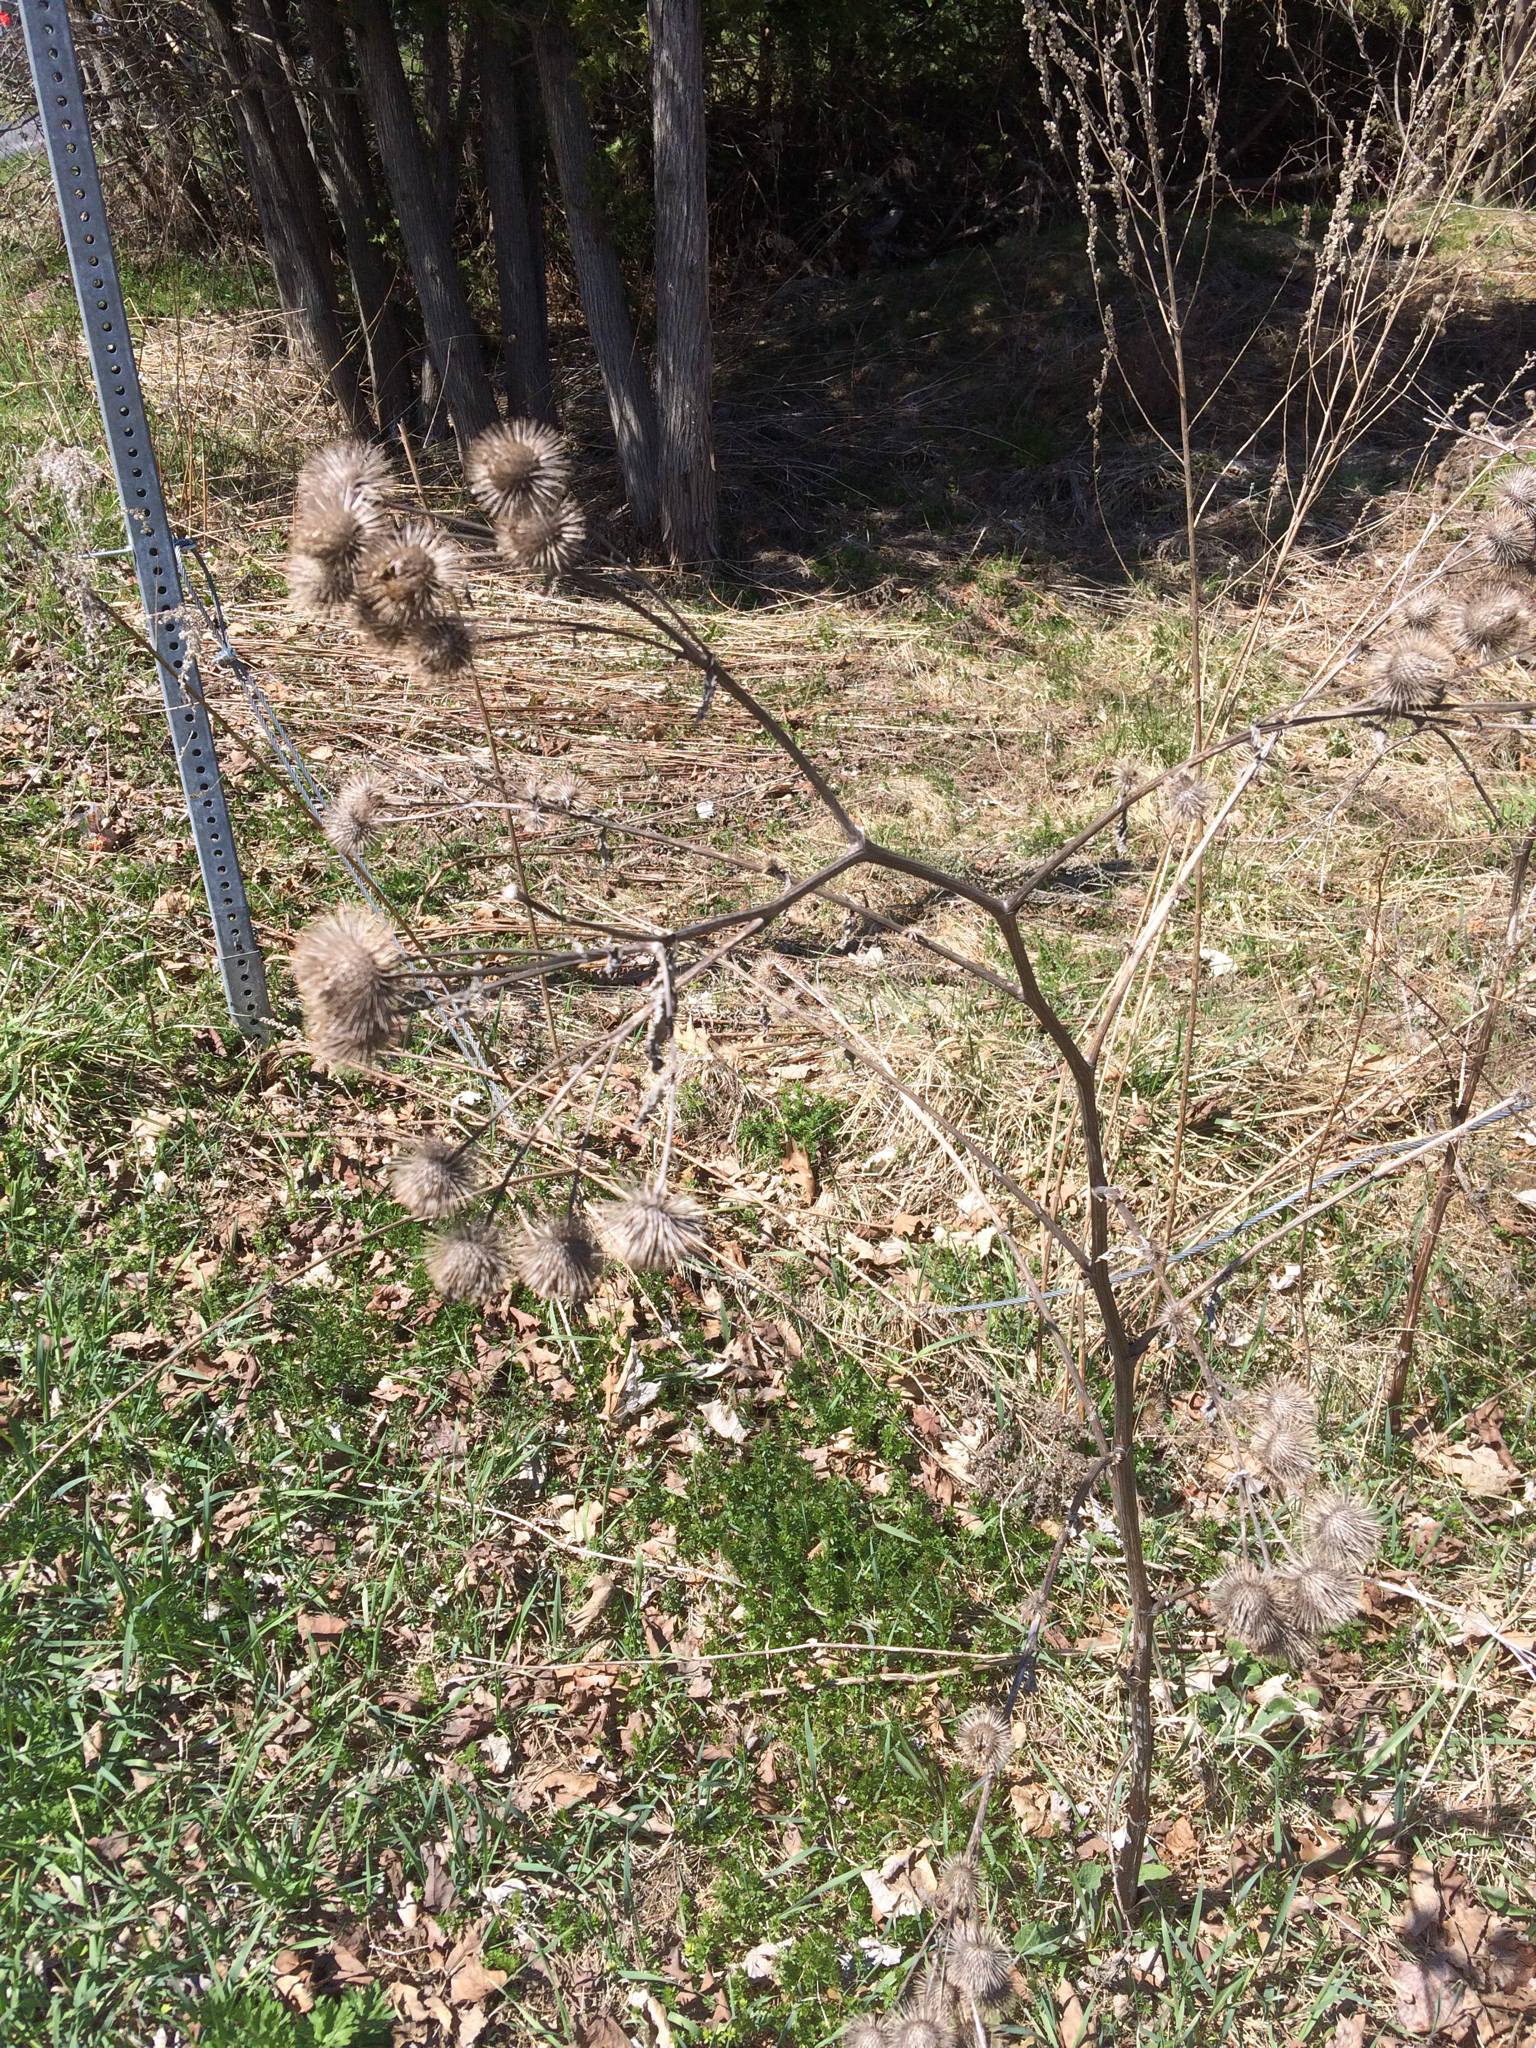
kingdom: Plantae
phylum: Tracheophyta
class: Magnoliopsida
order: Asterales
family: Asteraceae
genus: Arctium
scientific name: Arctium lappa
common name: Greater burdock
